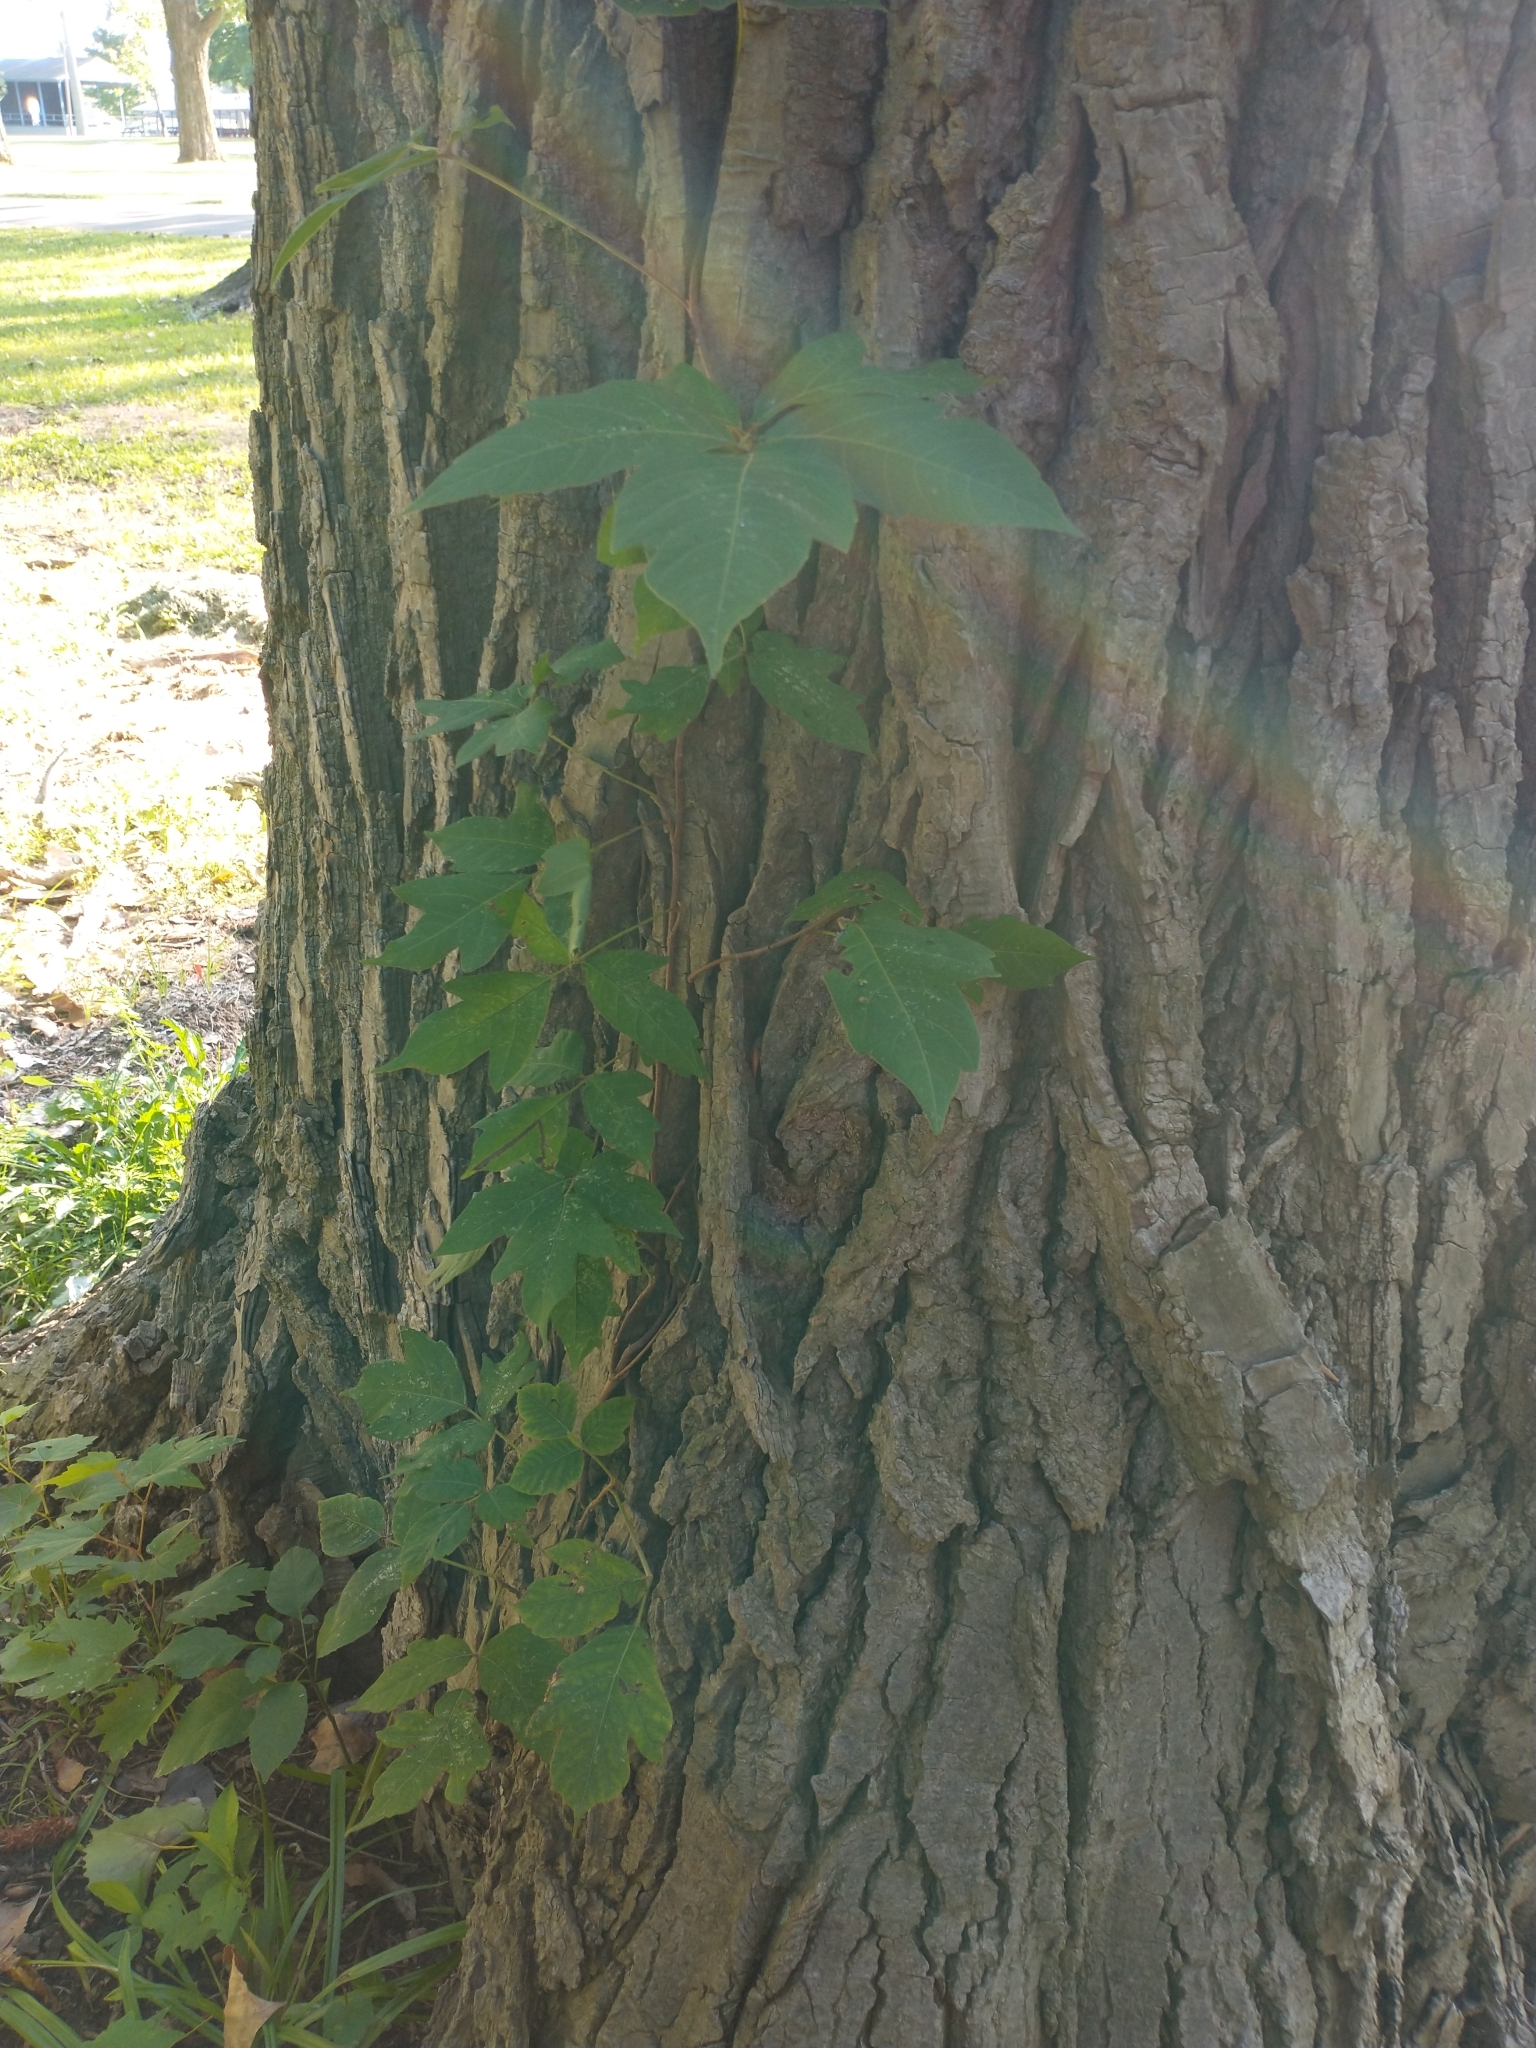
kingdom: Plantae
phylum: Tracheophyta
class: Magnoliopsida
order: Sapindales
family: Anacardiaceae
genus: Toxicodendron
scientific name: Toxicodendron radicans
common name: Poison ivy
